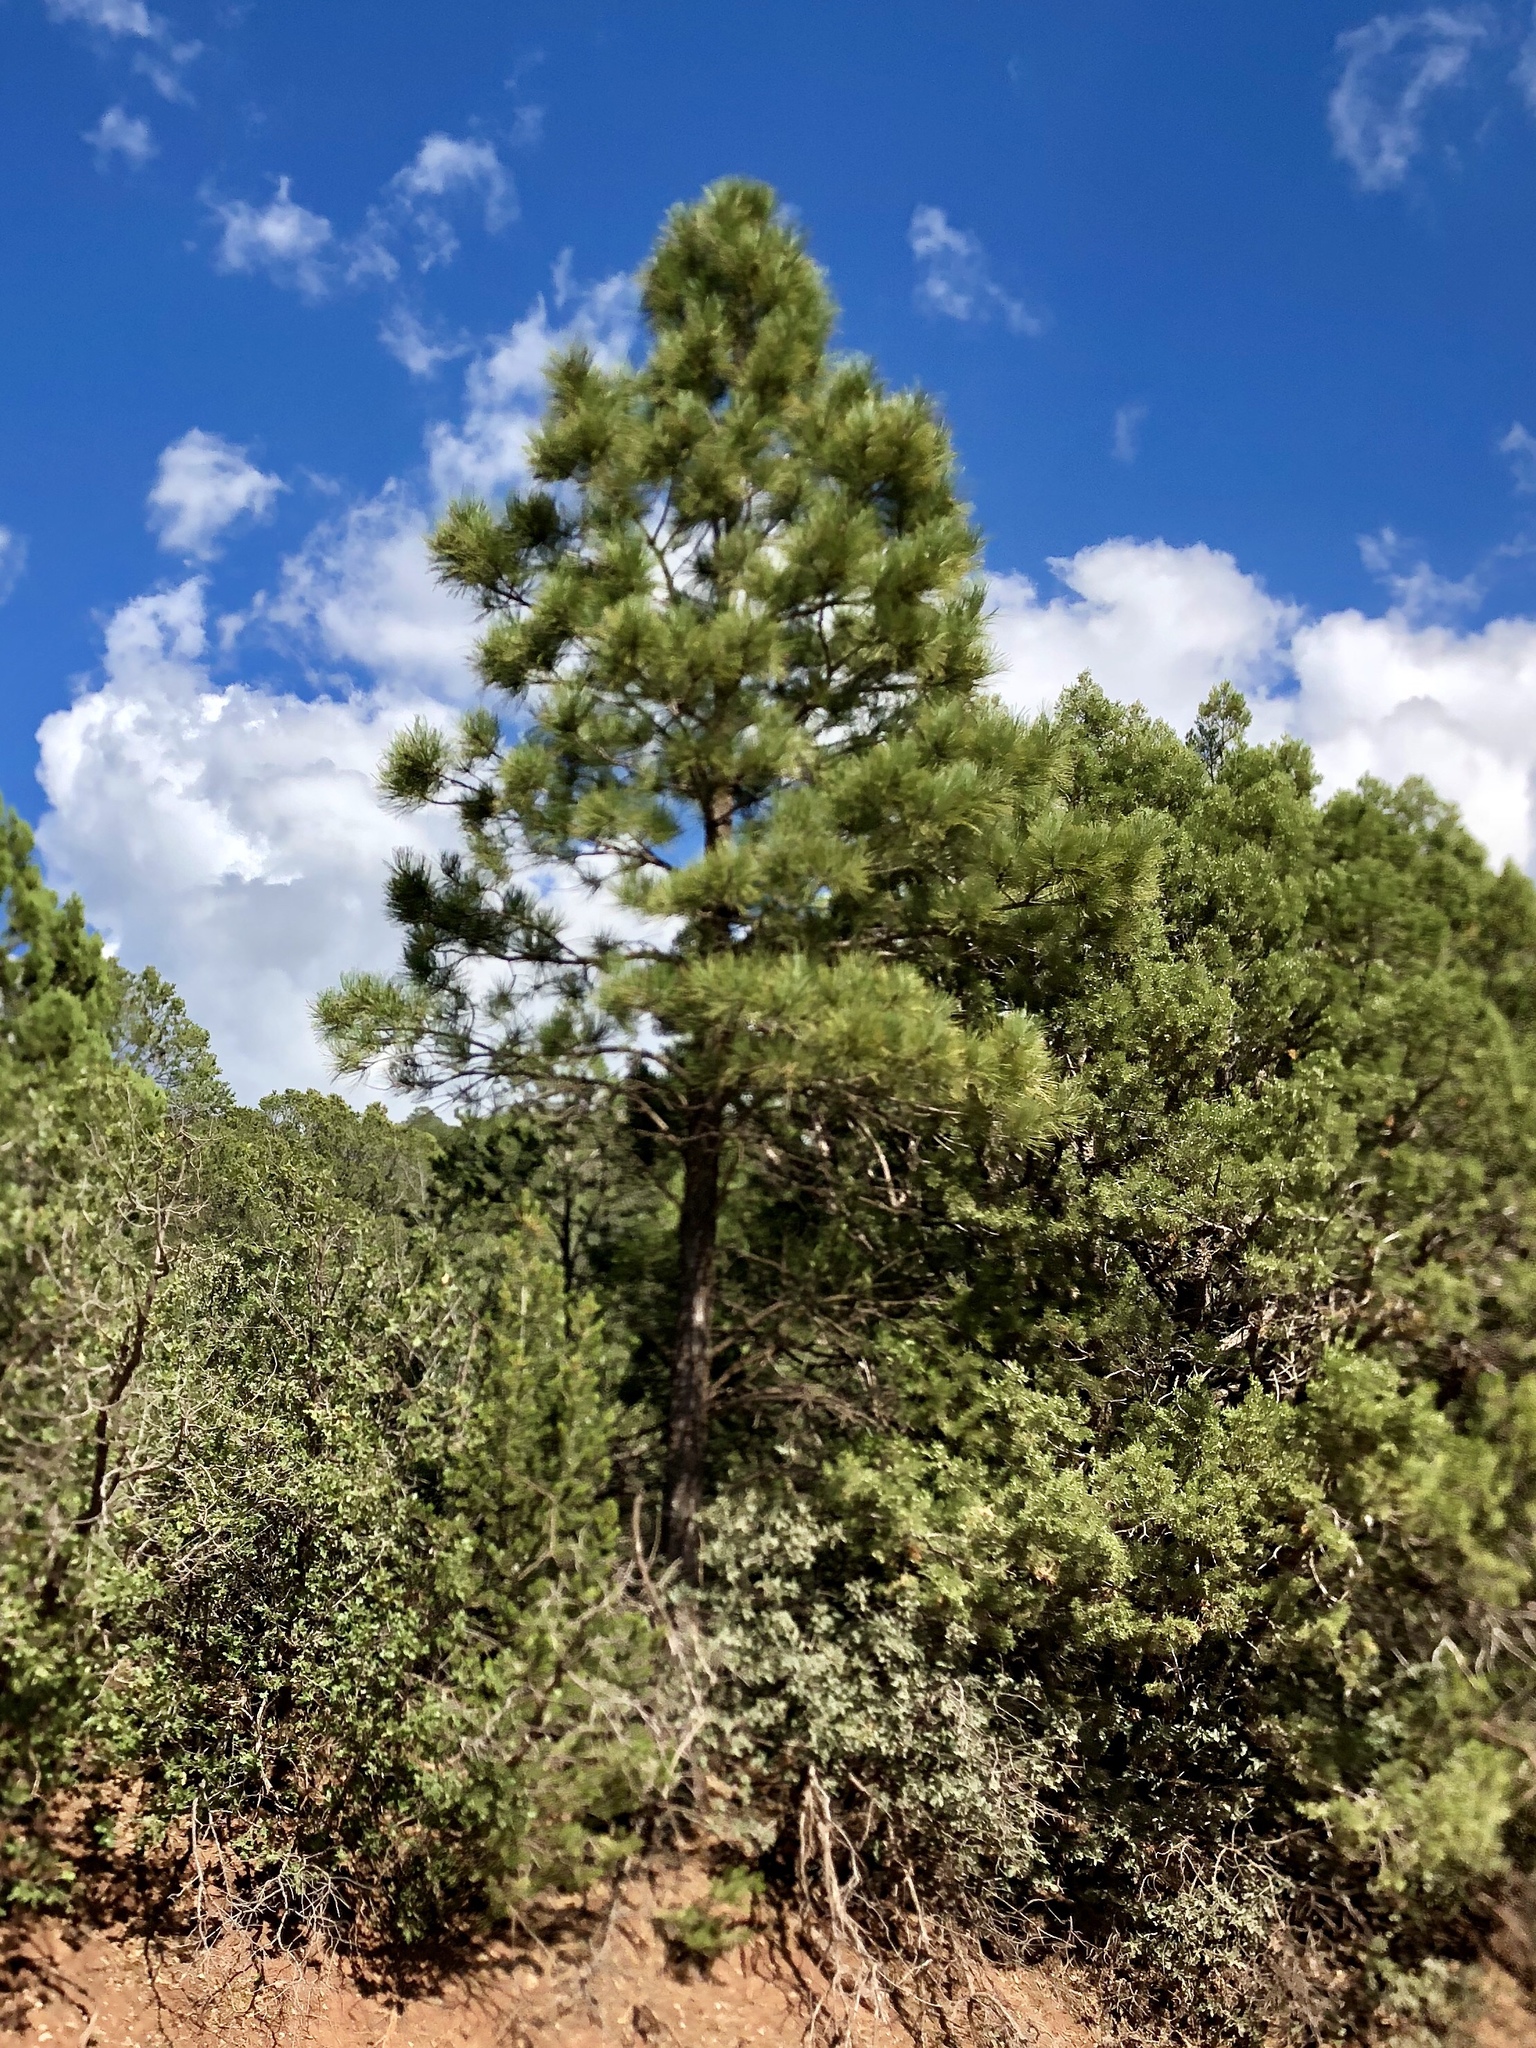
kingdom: Plantae
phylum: Tracheophyta
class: Pinopsida
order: Pinales
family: Pinaceae
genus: Pinus
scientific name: Pinus ponderosa
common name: Western yellow-pine
